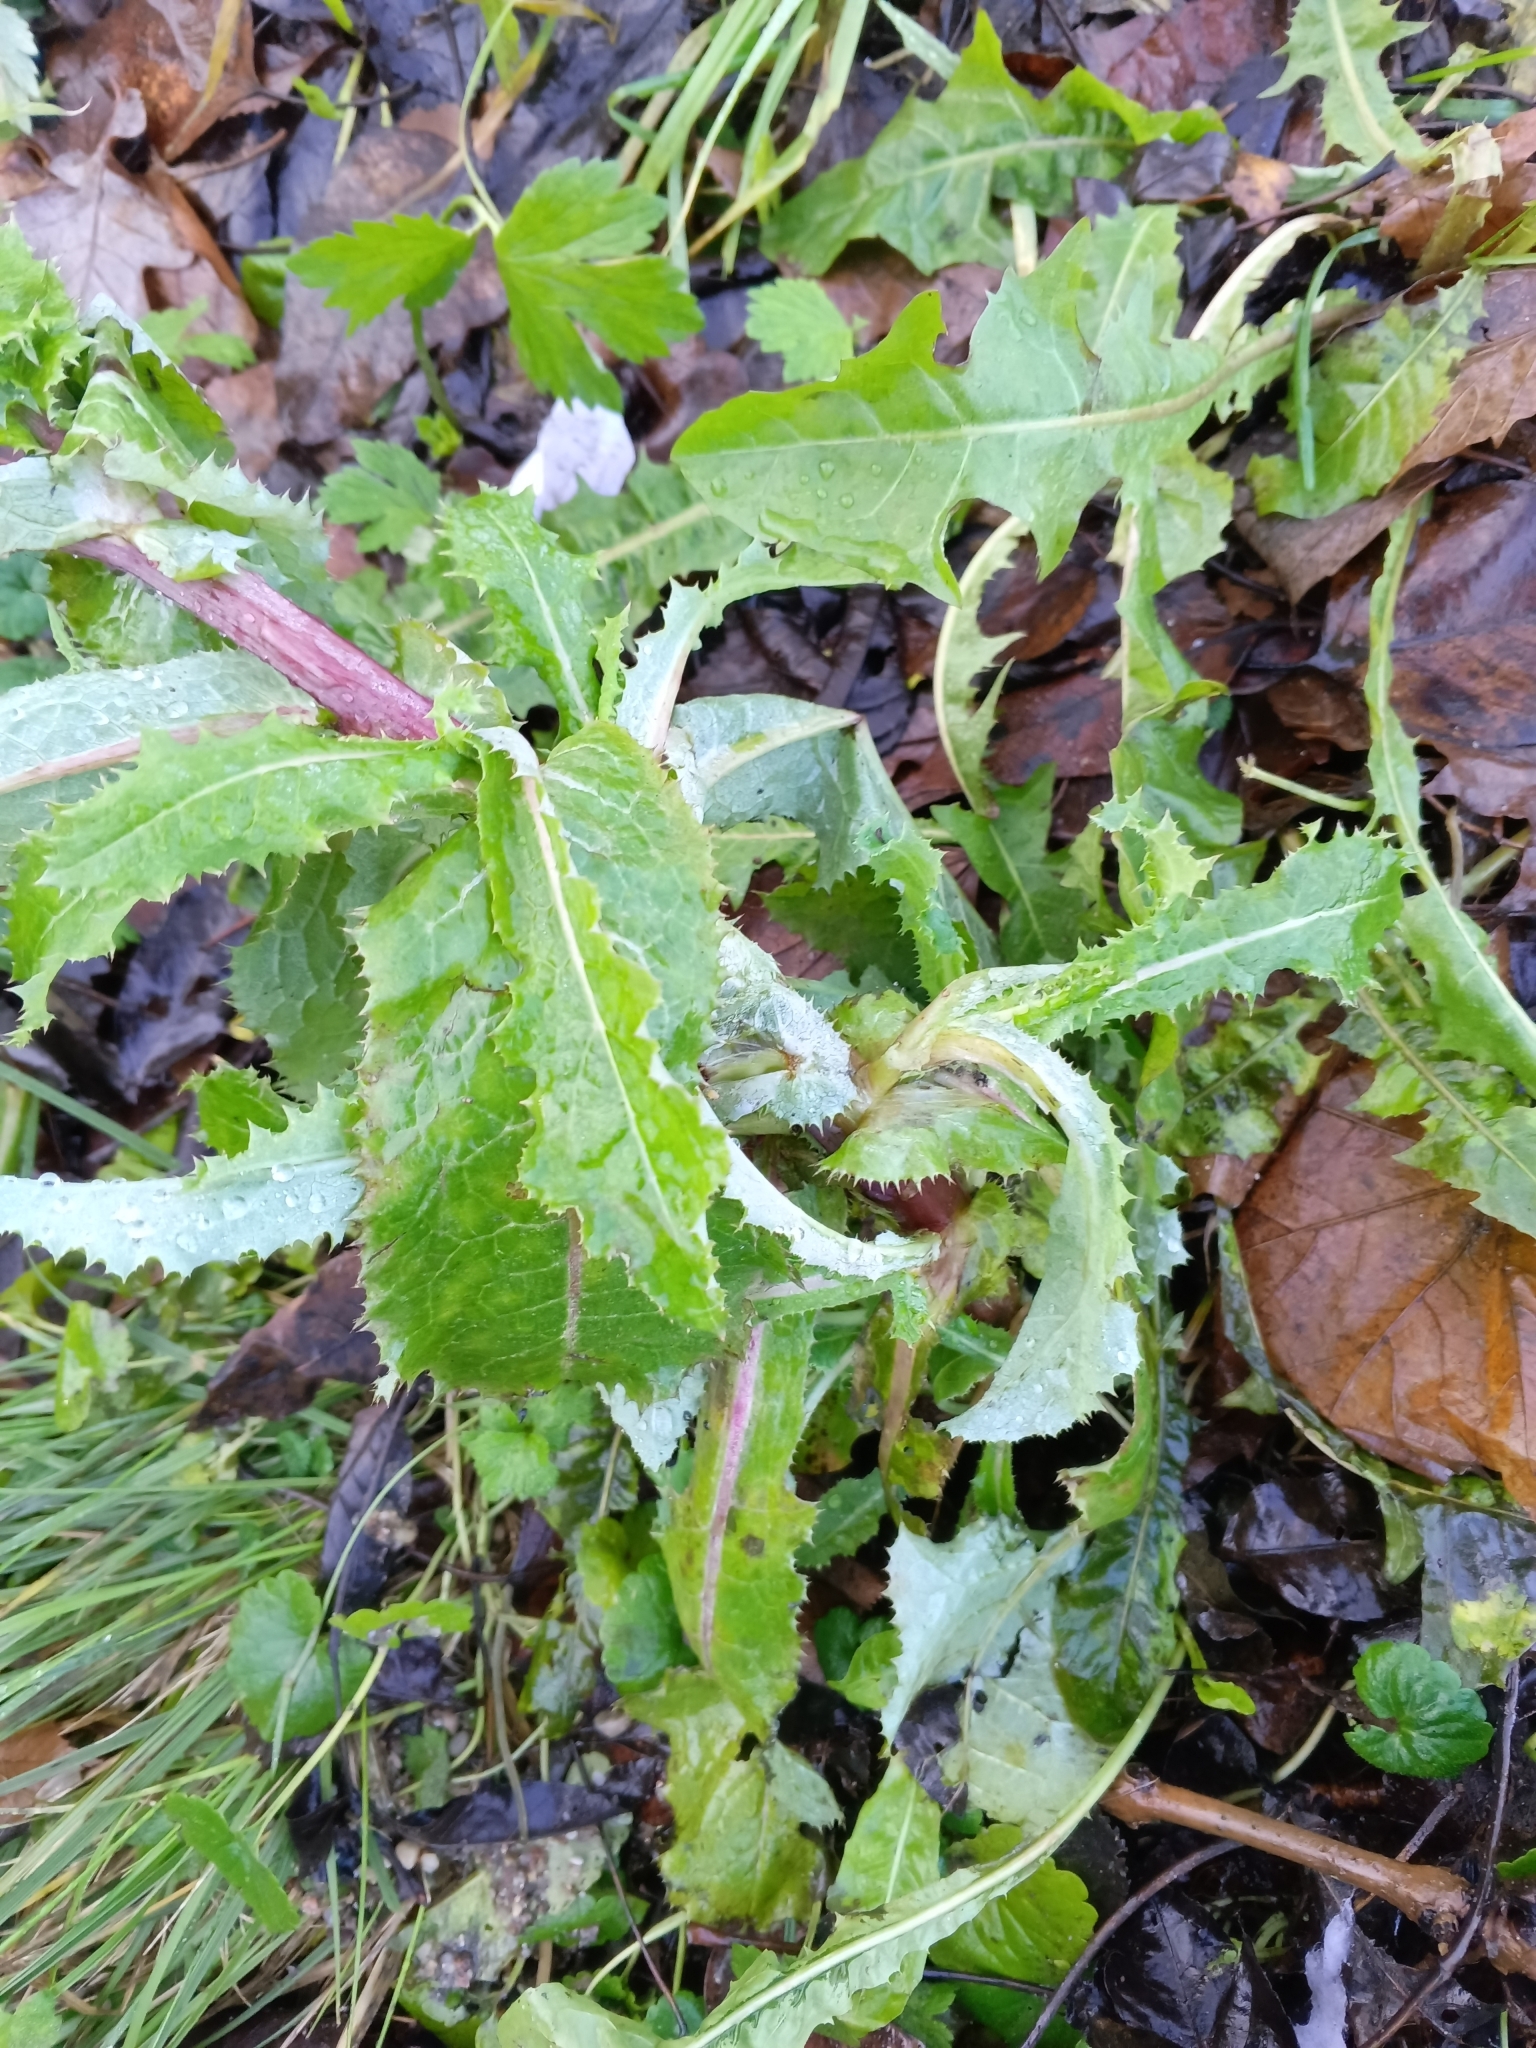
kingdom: Plantae
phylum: Tracheophyta
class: Magnoliopsida
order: Asterales
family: Asteraceae
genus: Sonchus
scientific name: Sonchus asper
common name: Prickly sow-thistle
